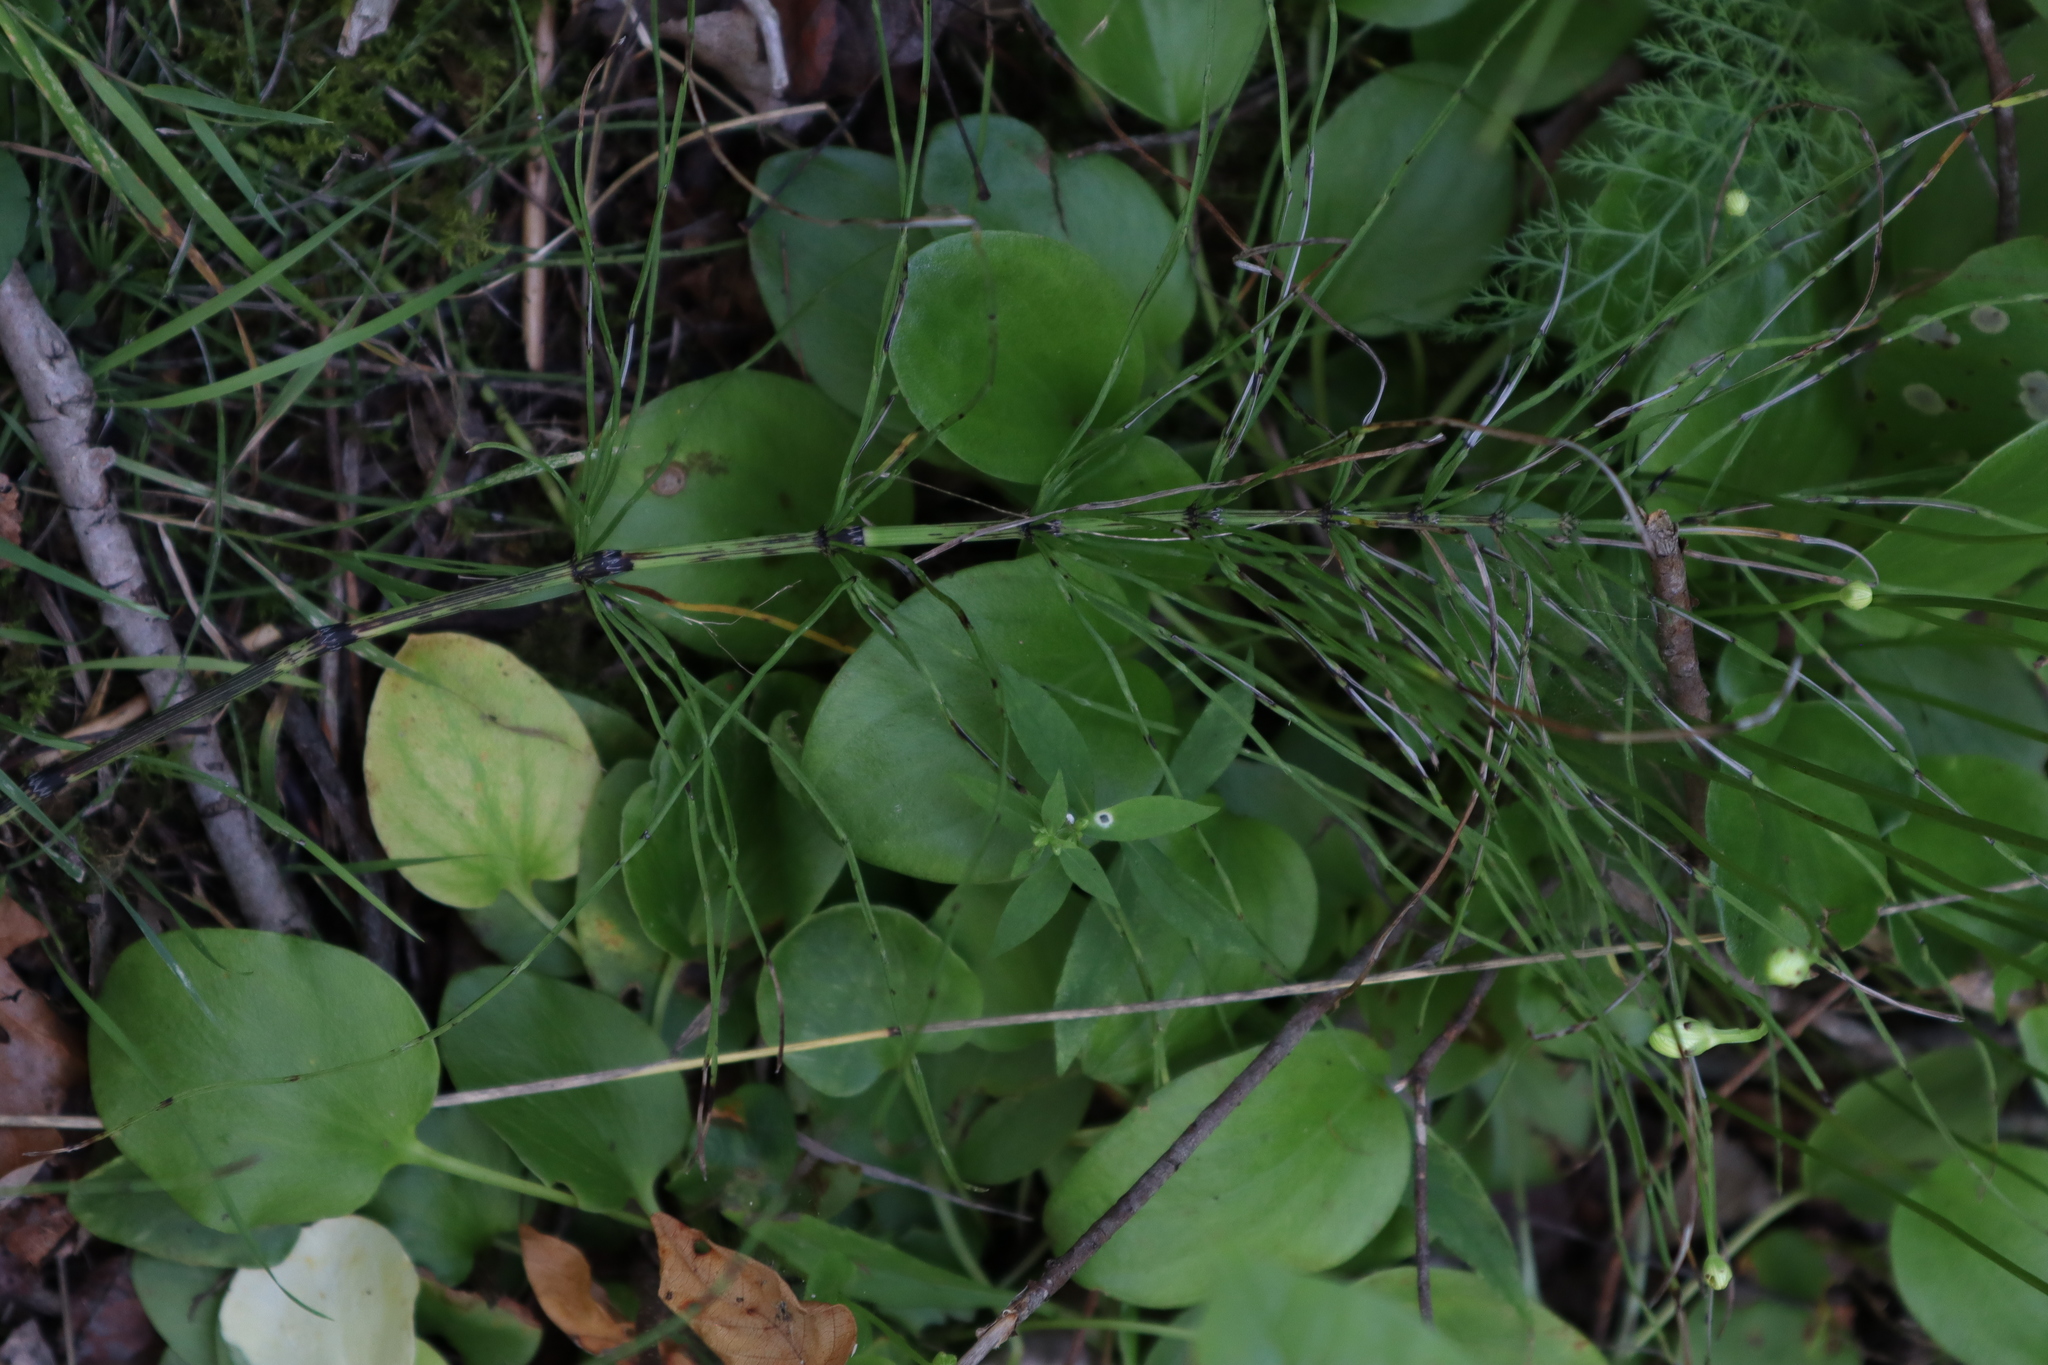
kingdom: Plantae
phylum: Tracheophyta
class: Magnoliopsida
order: Celastrales
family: Parnassiaceae
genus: Parnassia
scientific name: Parnassia glauca
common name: American grass-of-parnassus
